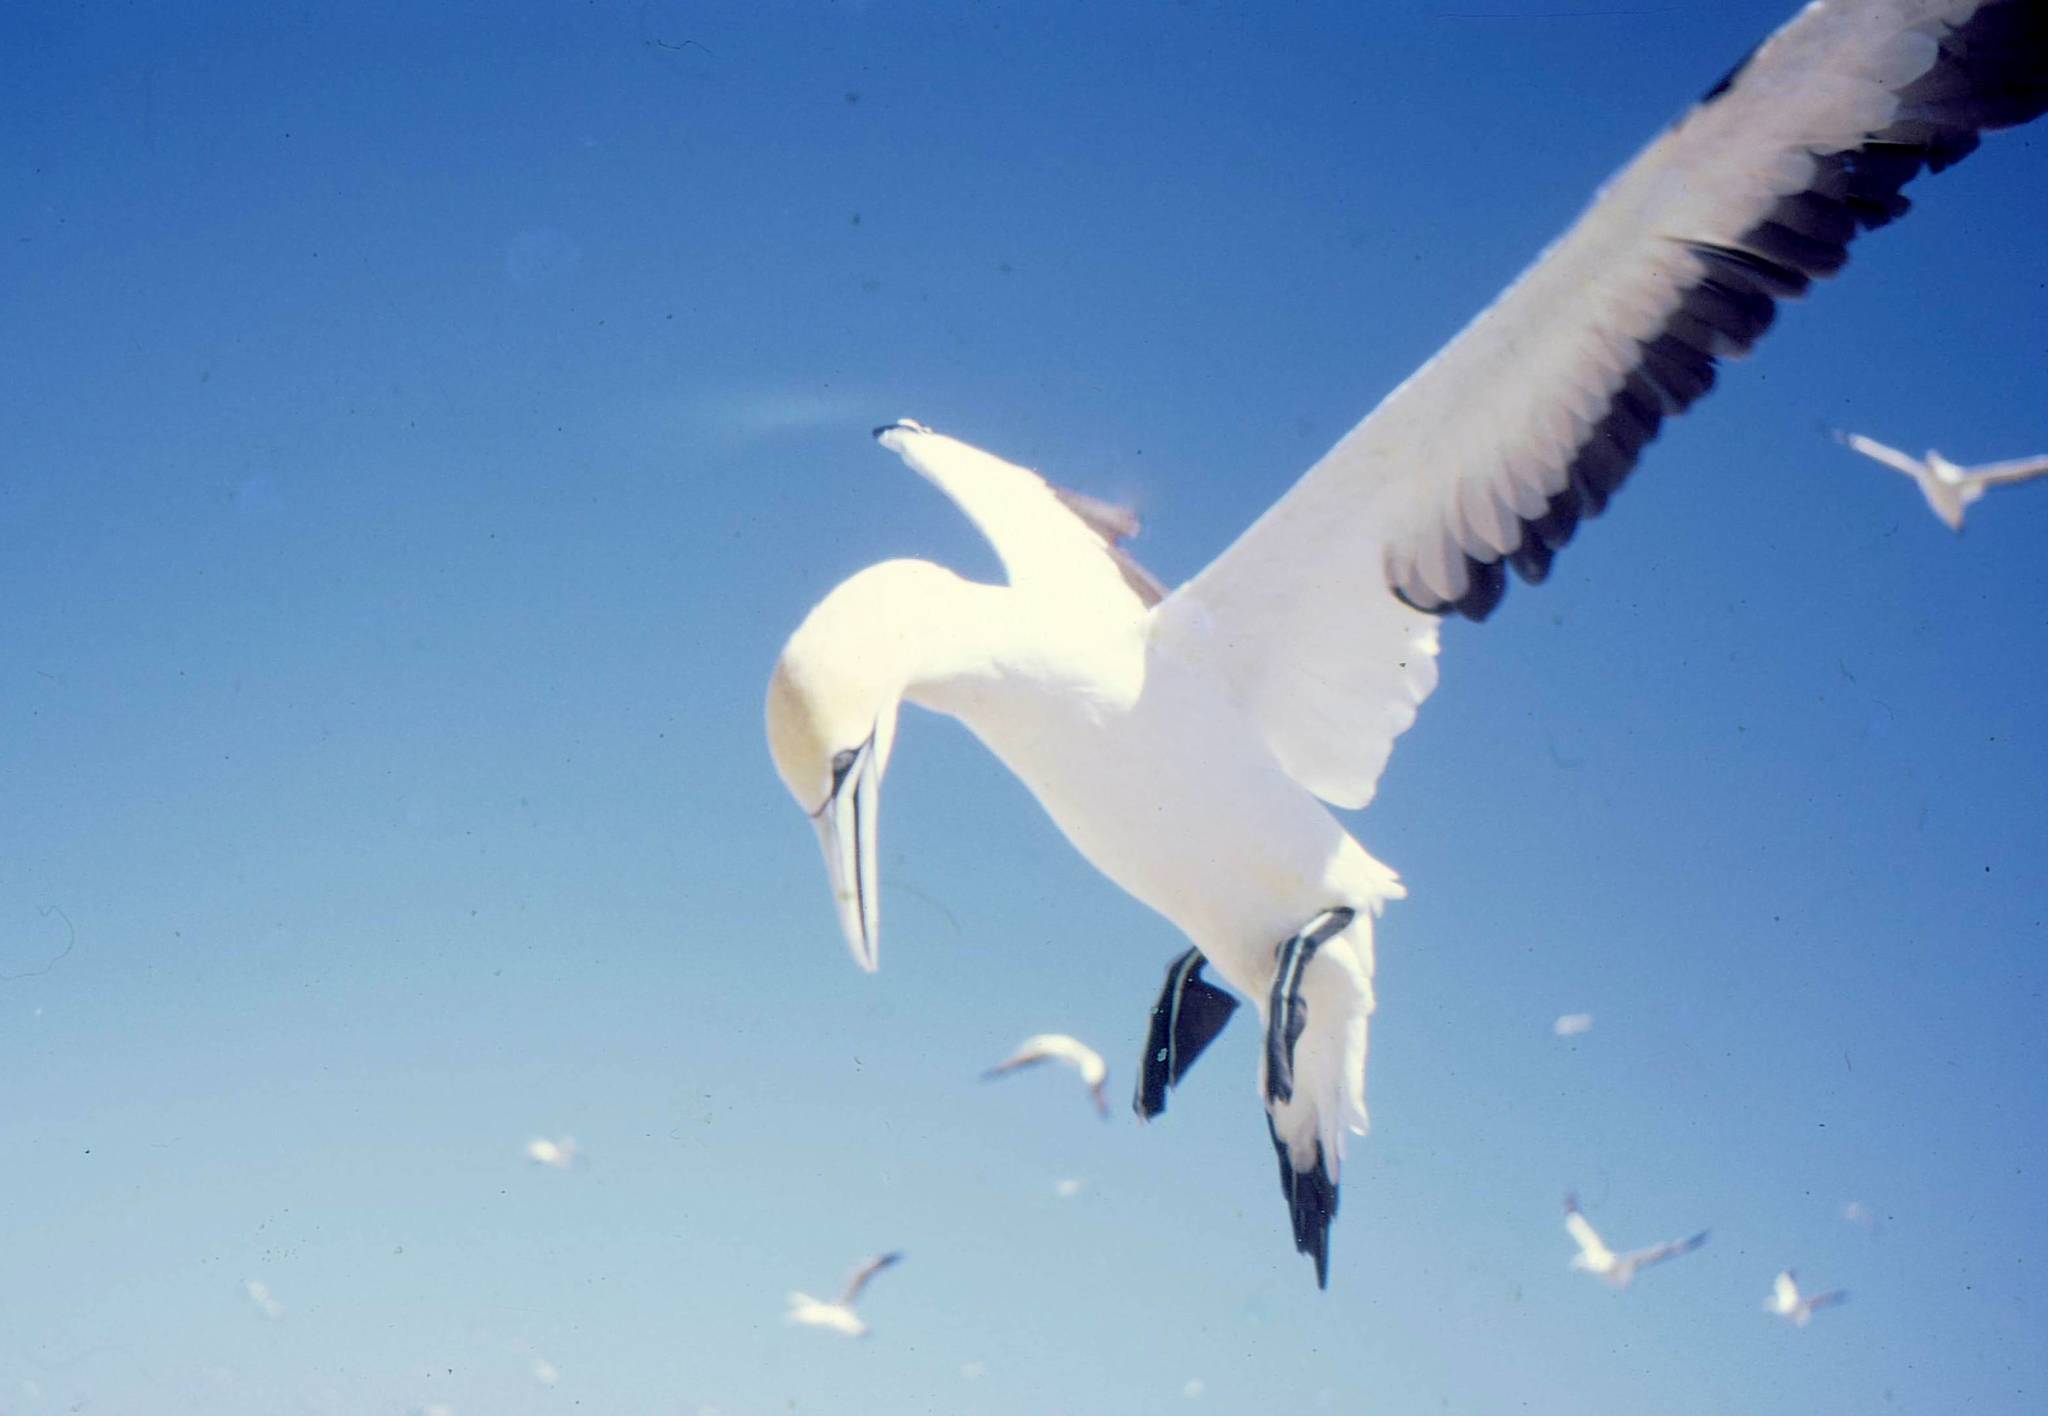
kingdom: Animalia
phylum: Chordata
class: Aves
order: Suliformes
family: Sulidae
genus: Morus
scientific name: Morus capensis
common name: Cape gannet
